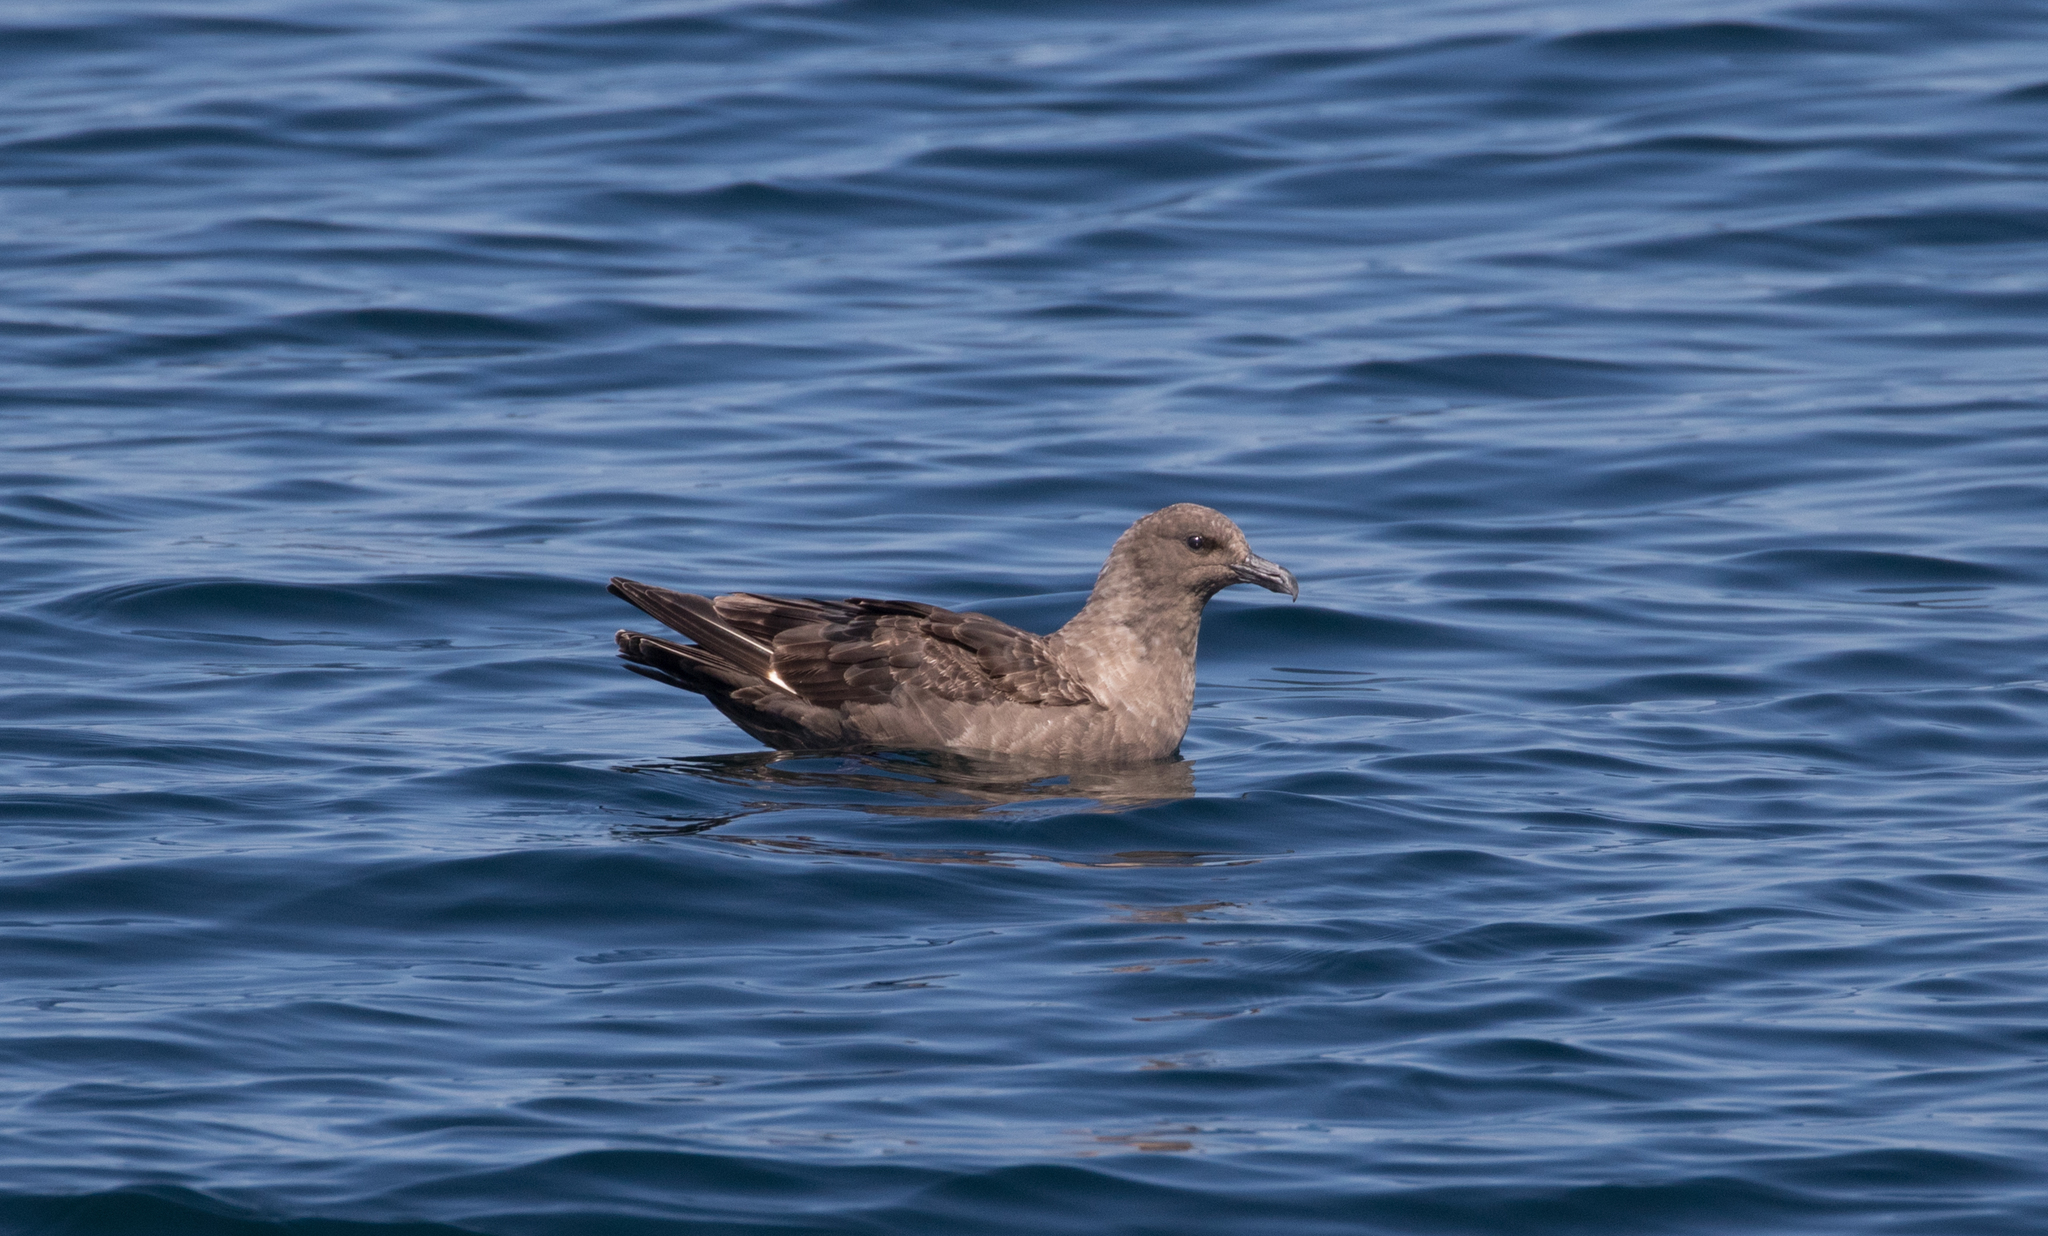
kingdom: Animalia
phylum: Chordata
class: Aves
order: Charadriiformes
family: Stercorariidae
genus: Stercorarius
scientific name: Stercorarius maccormicki
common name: South polar skua
